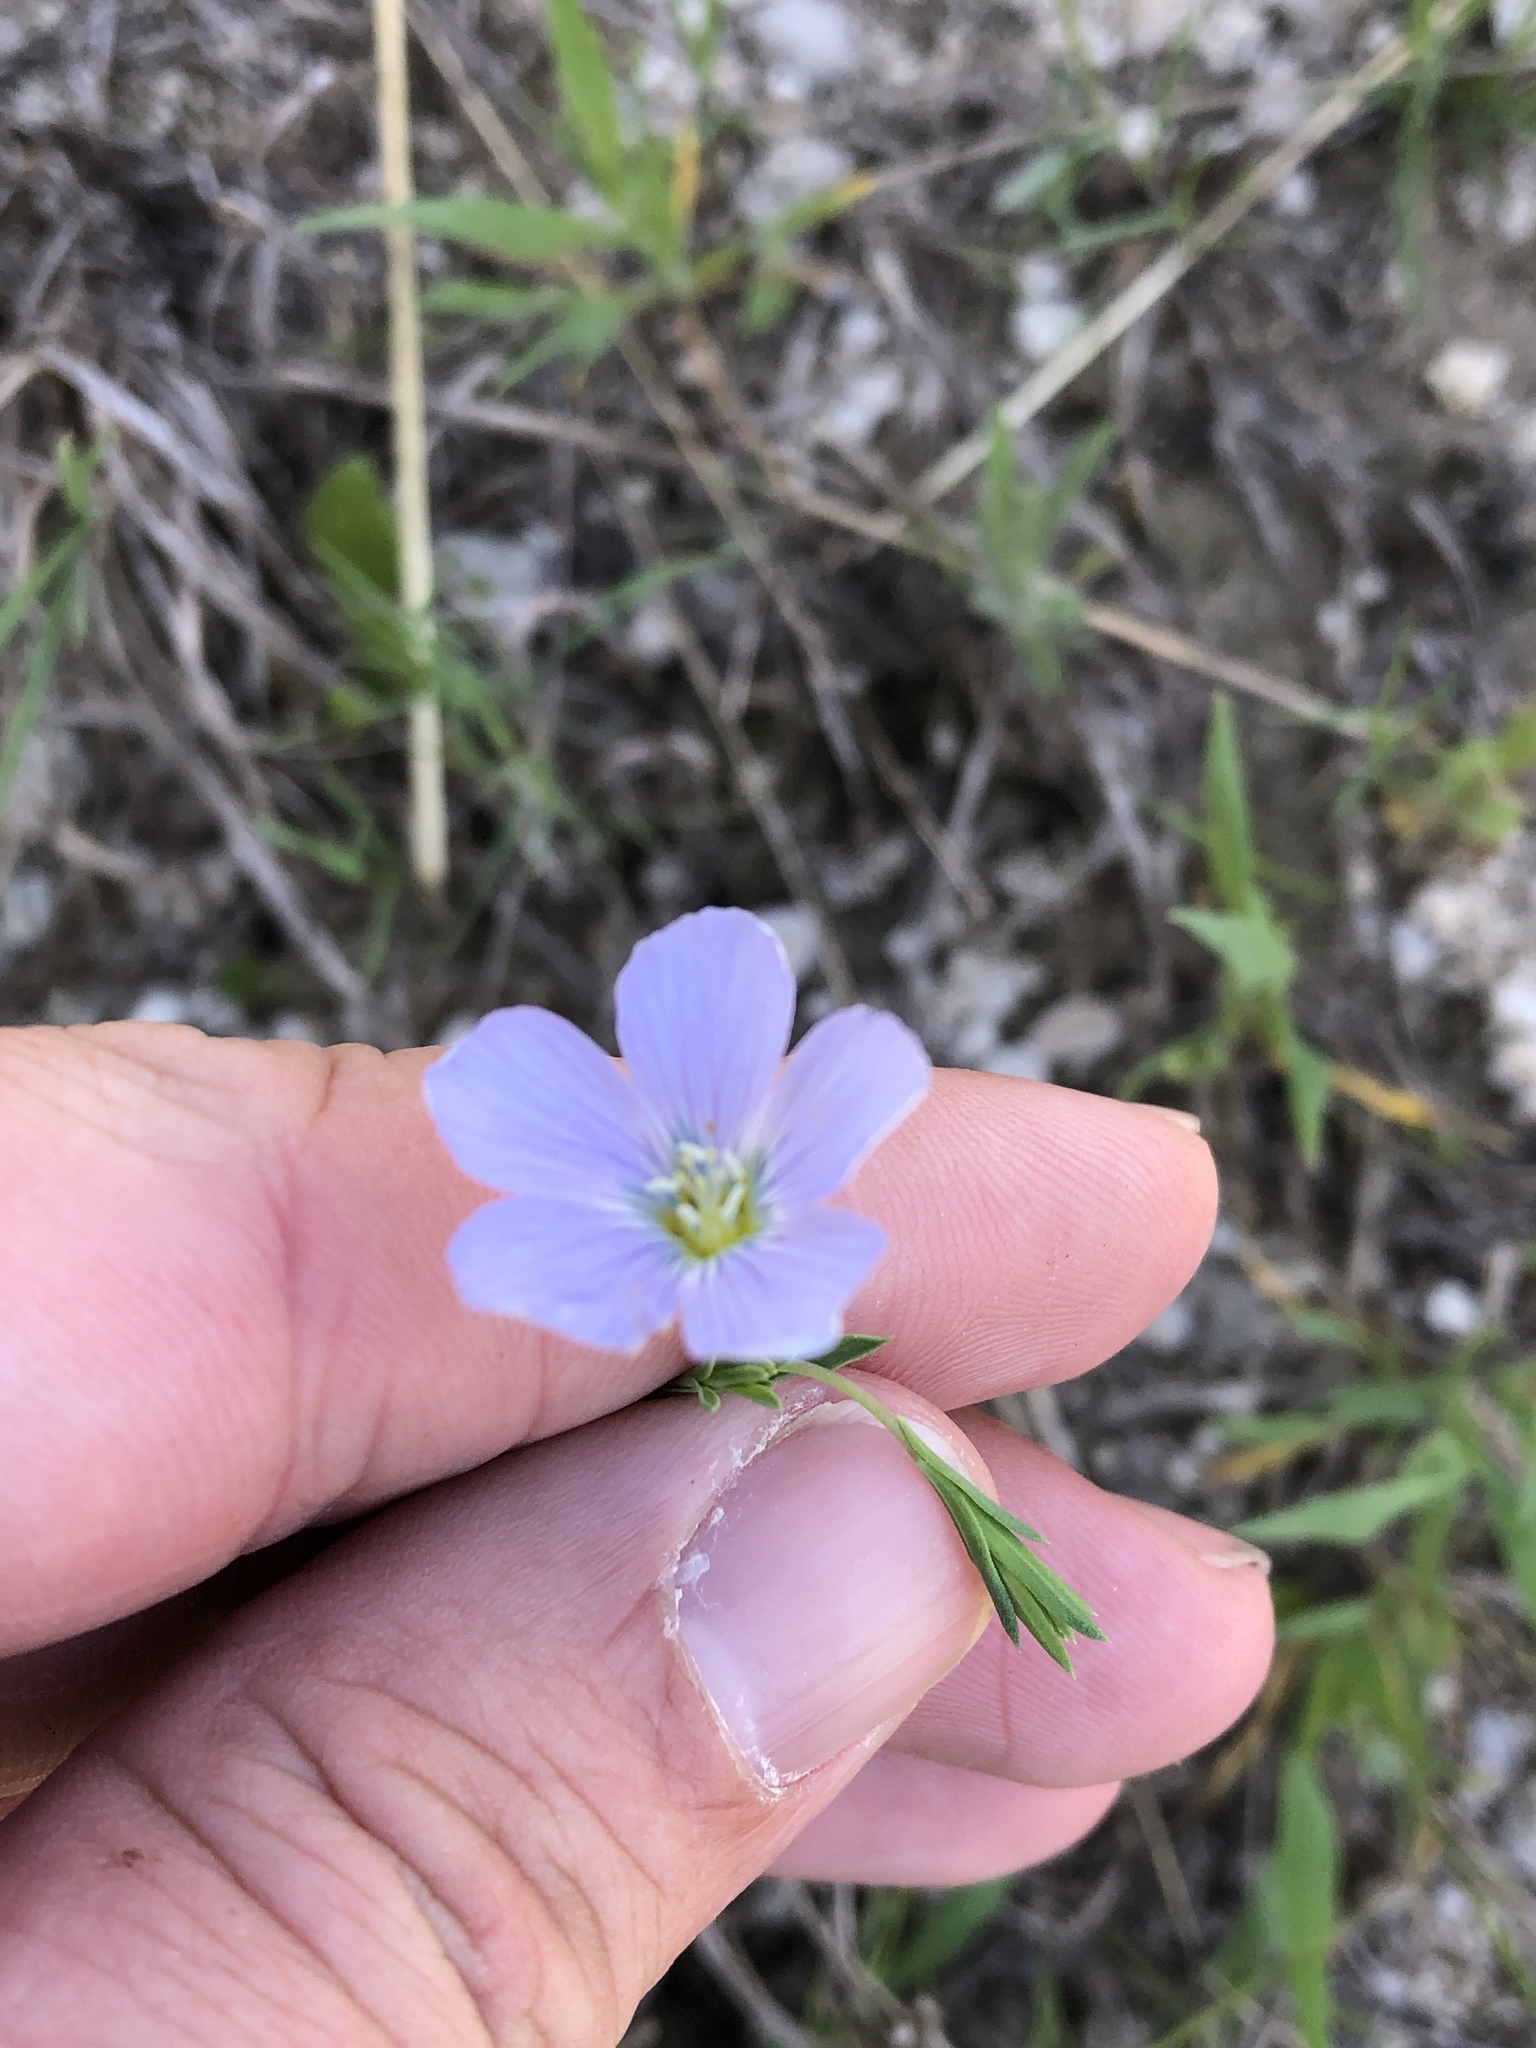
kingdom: Plantae
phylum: Tracheophyta
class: Magnoliopsida
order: Malpighiales
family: Linaceae
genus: Linum
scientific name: Linum pratense
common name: Norton's flax
